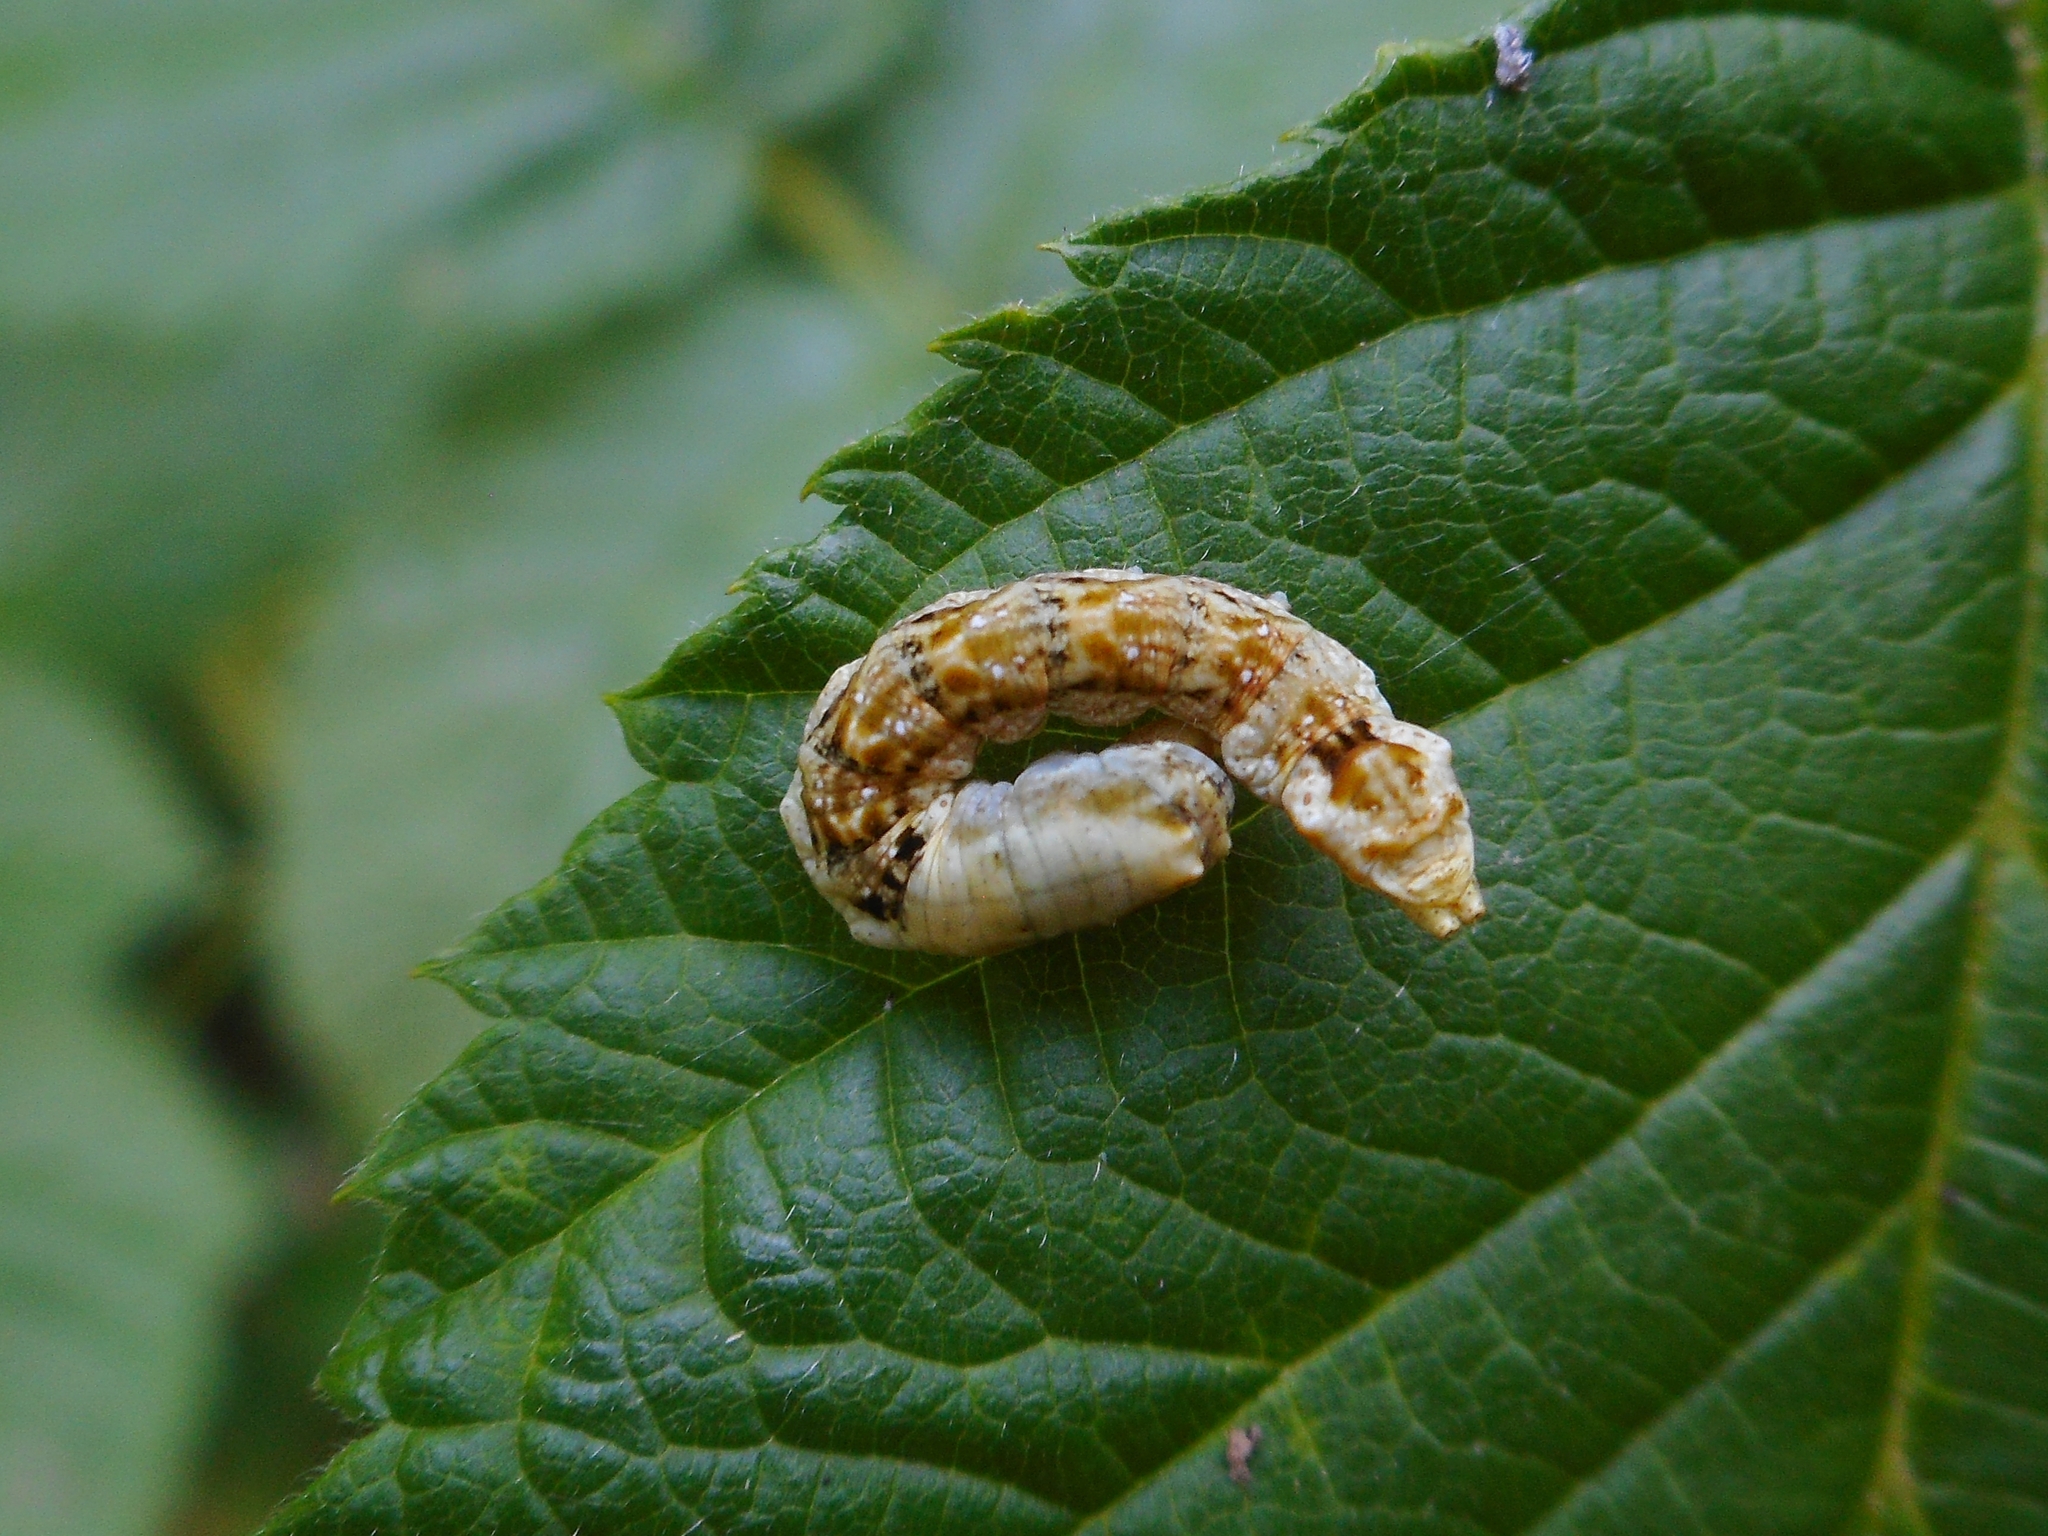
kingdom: Animalia
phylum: Arthropoda
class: Insecta
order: Lepidoptera
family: Drepanidae
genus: Thyatira
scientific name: Thyatira batis
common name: Peach blossom
